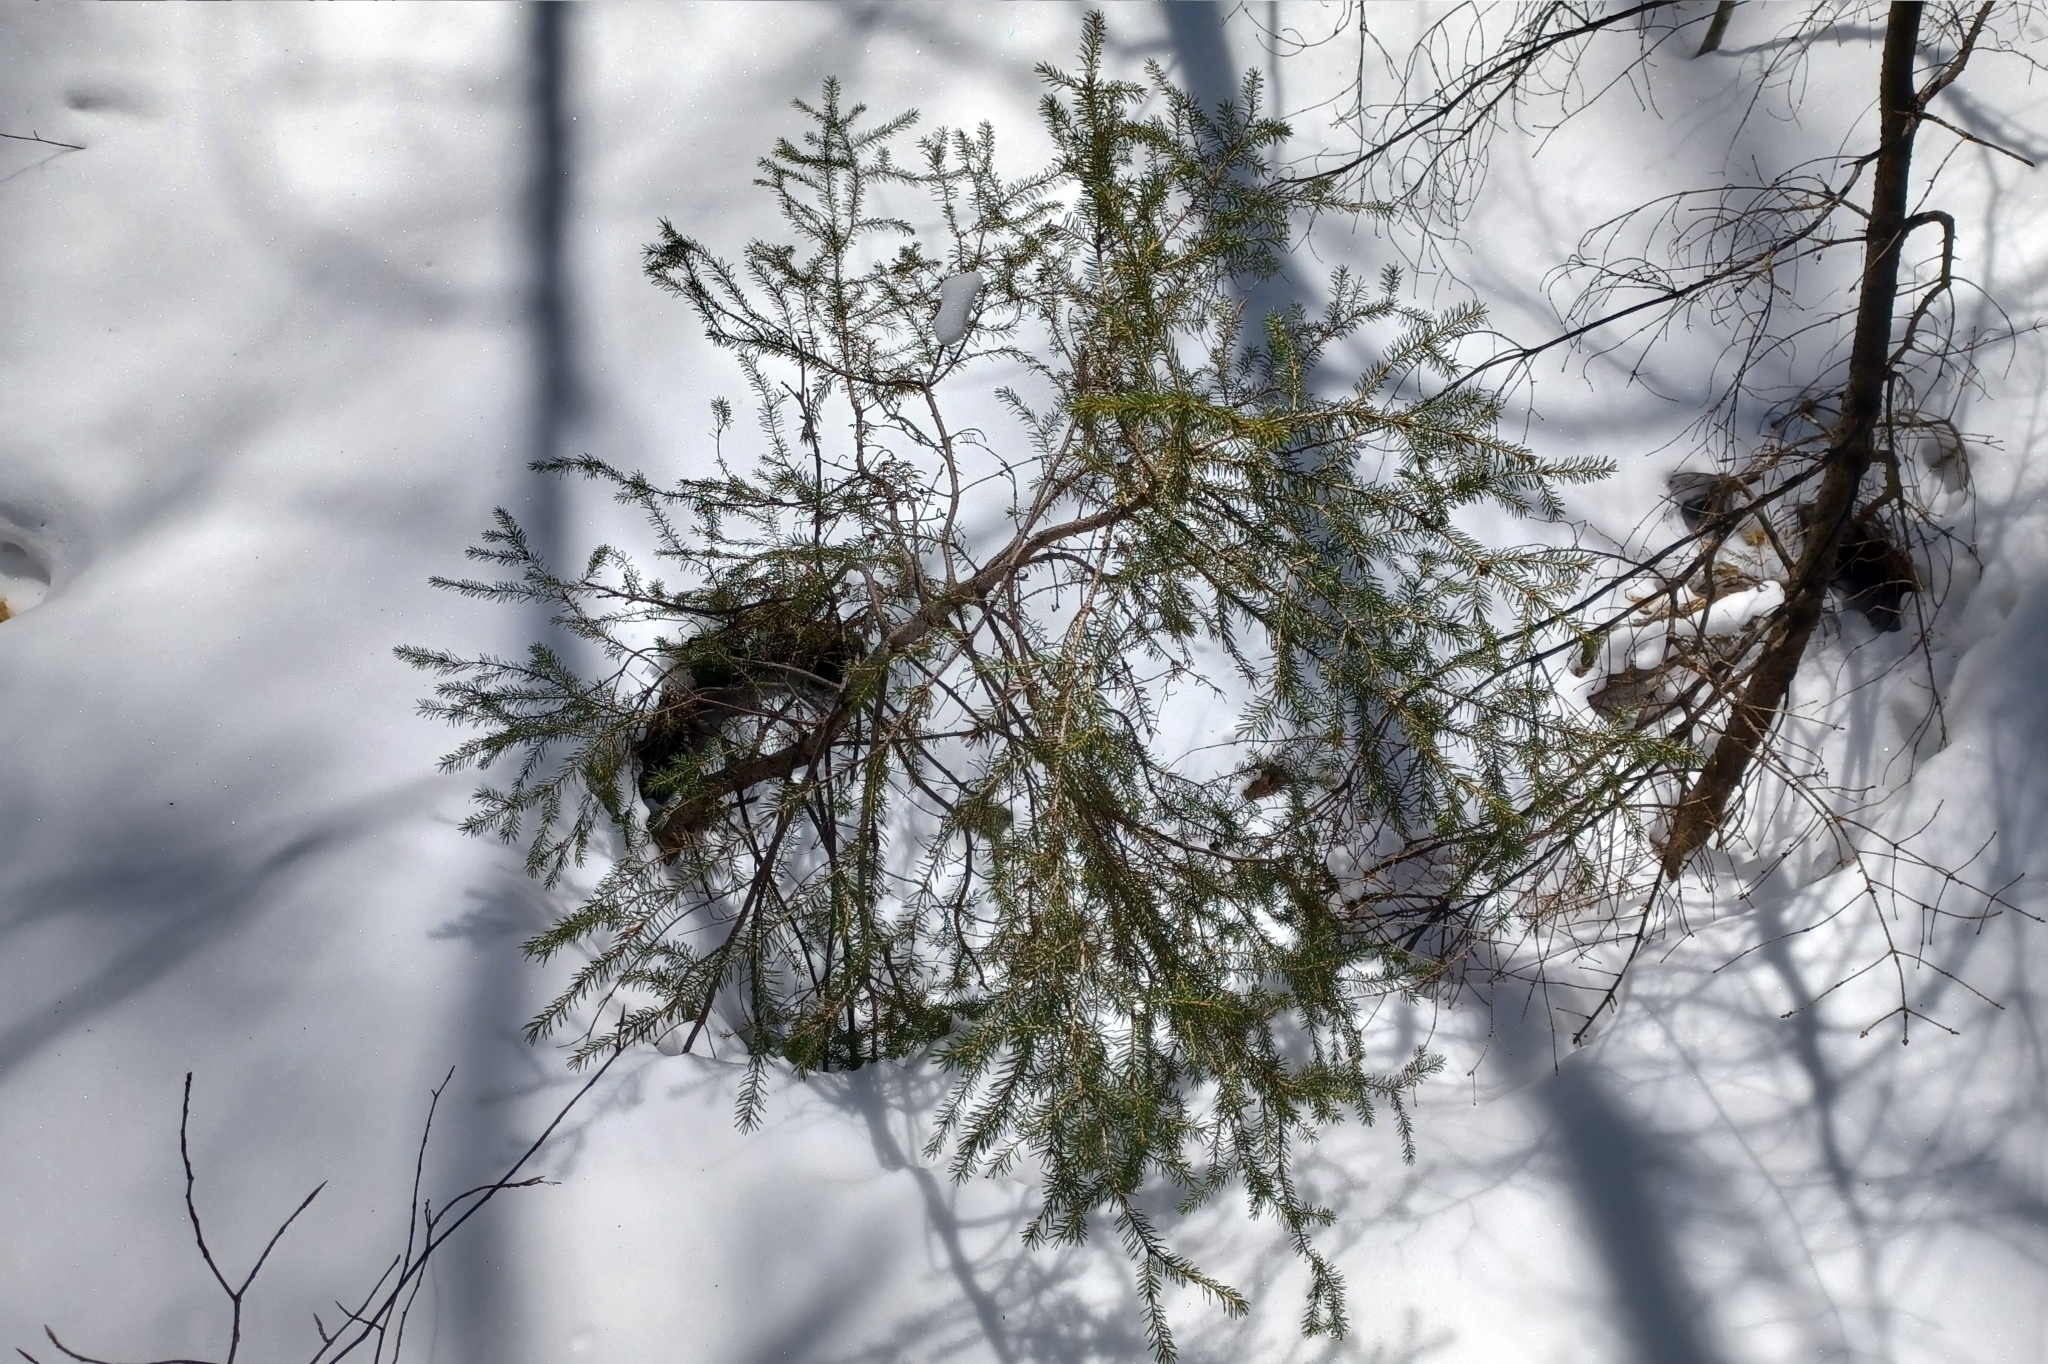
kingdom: Plantae
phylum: Tracheophyta
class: Pinopsida
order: Pinales
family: Pinaceae
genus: Picea
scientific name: Picea rubens
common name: Red spruce
